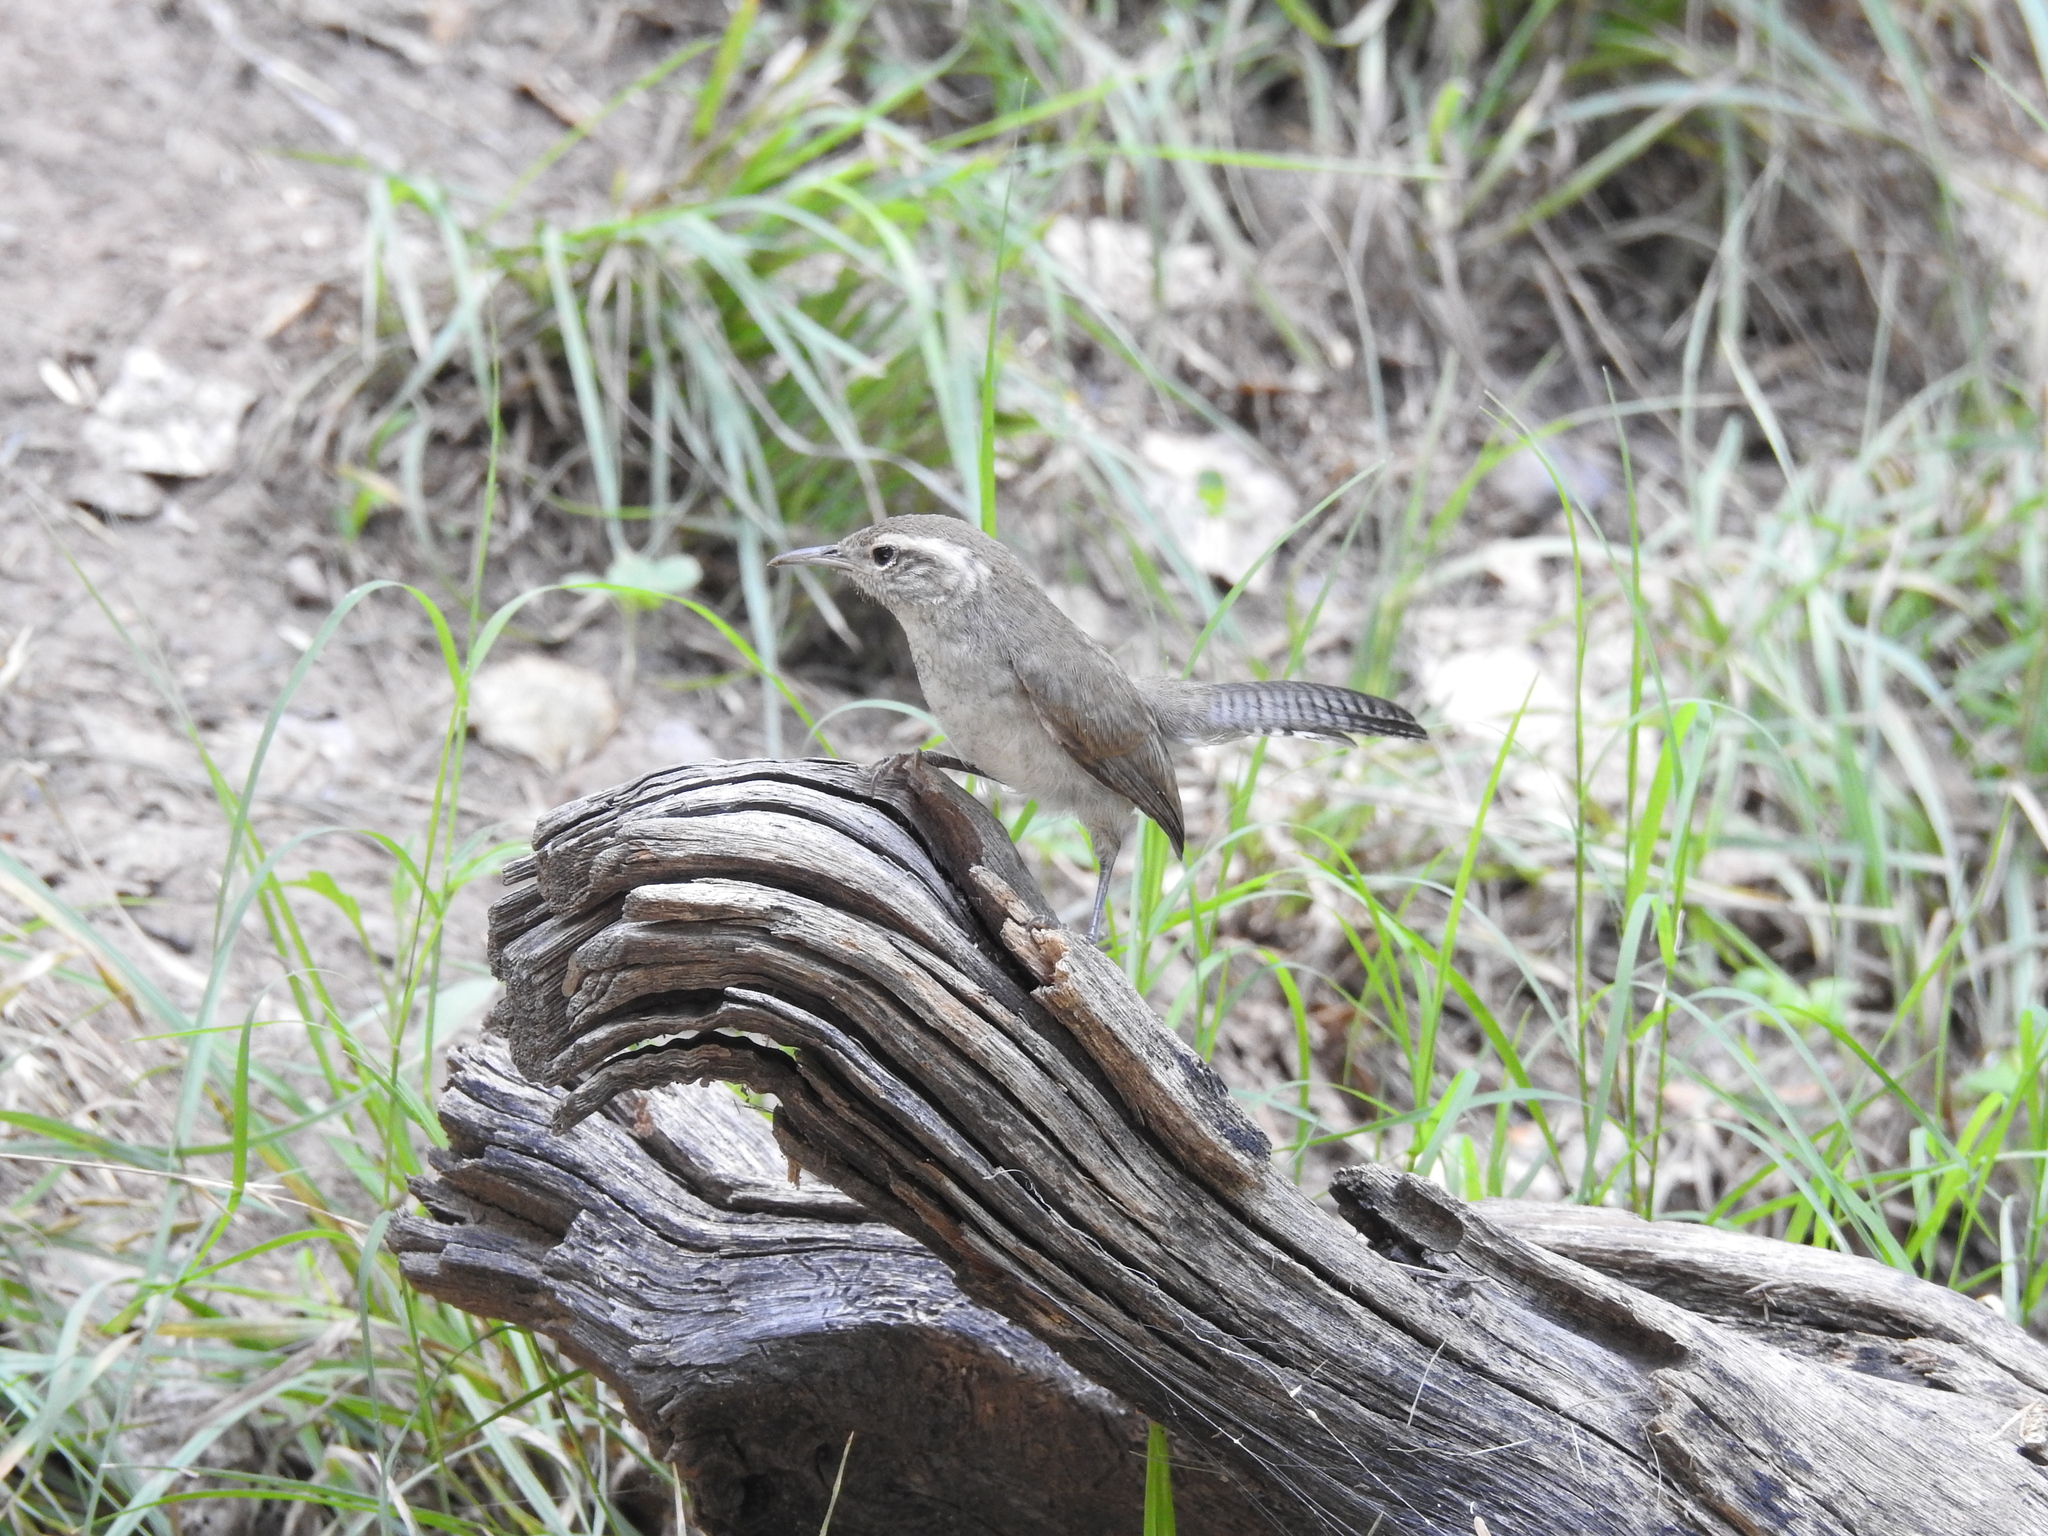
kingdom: Animalia
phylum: Chordata
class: Aves
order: Passeriformes
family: Troglodytidae
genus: Thryomanes
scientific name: Thryomanes bewickii
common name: Bewick's wren
